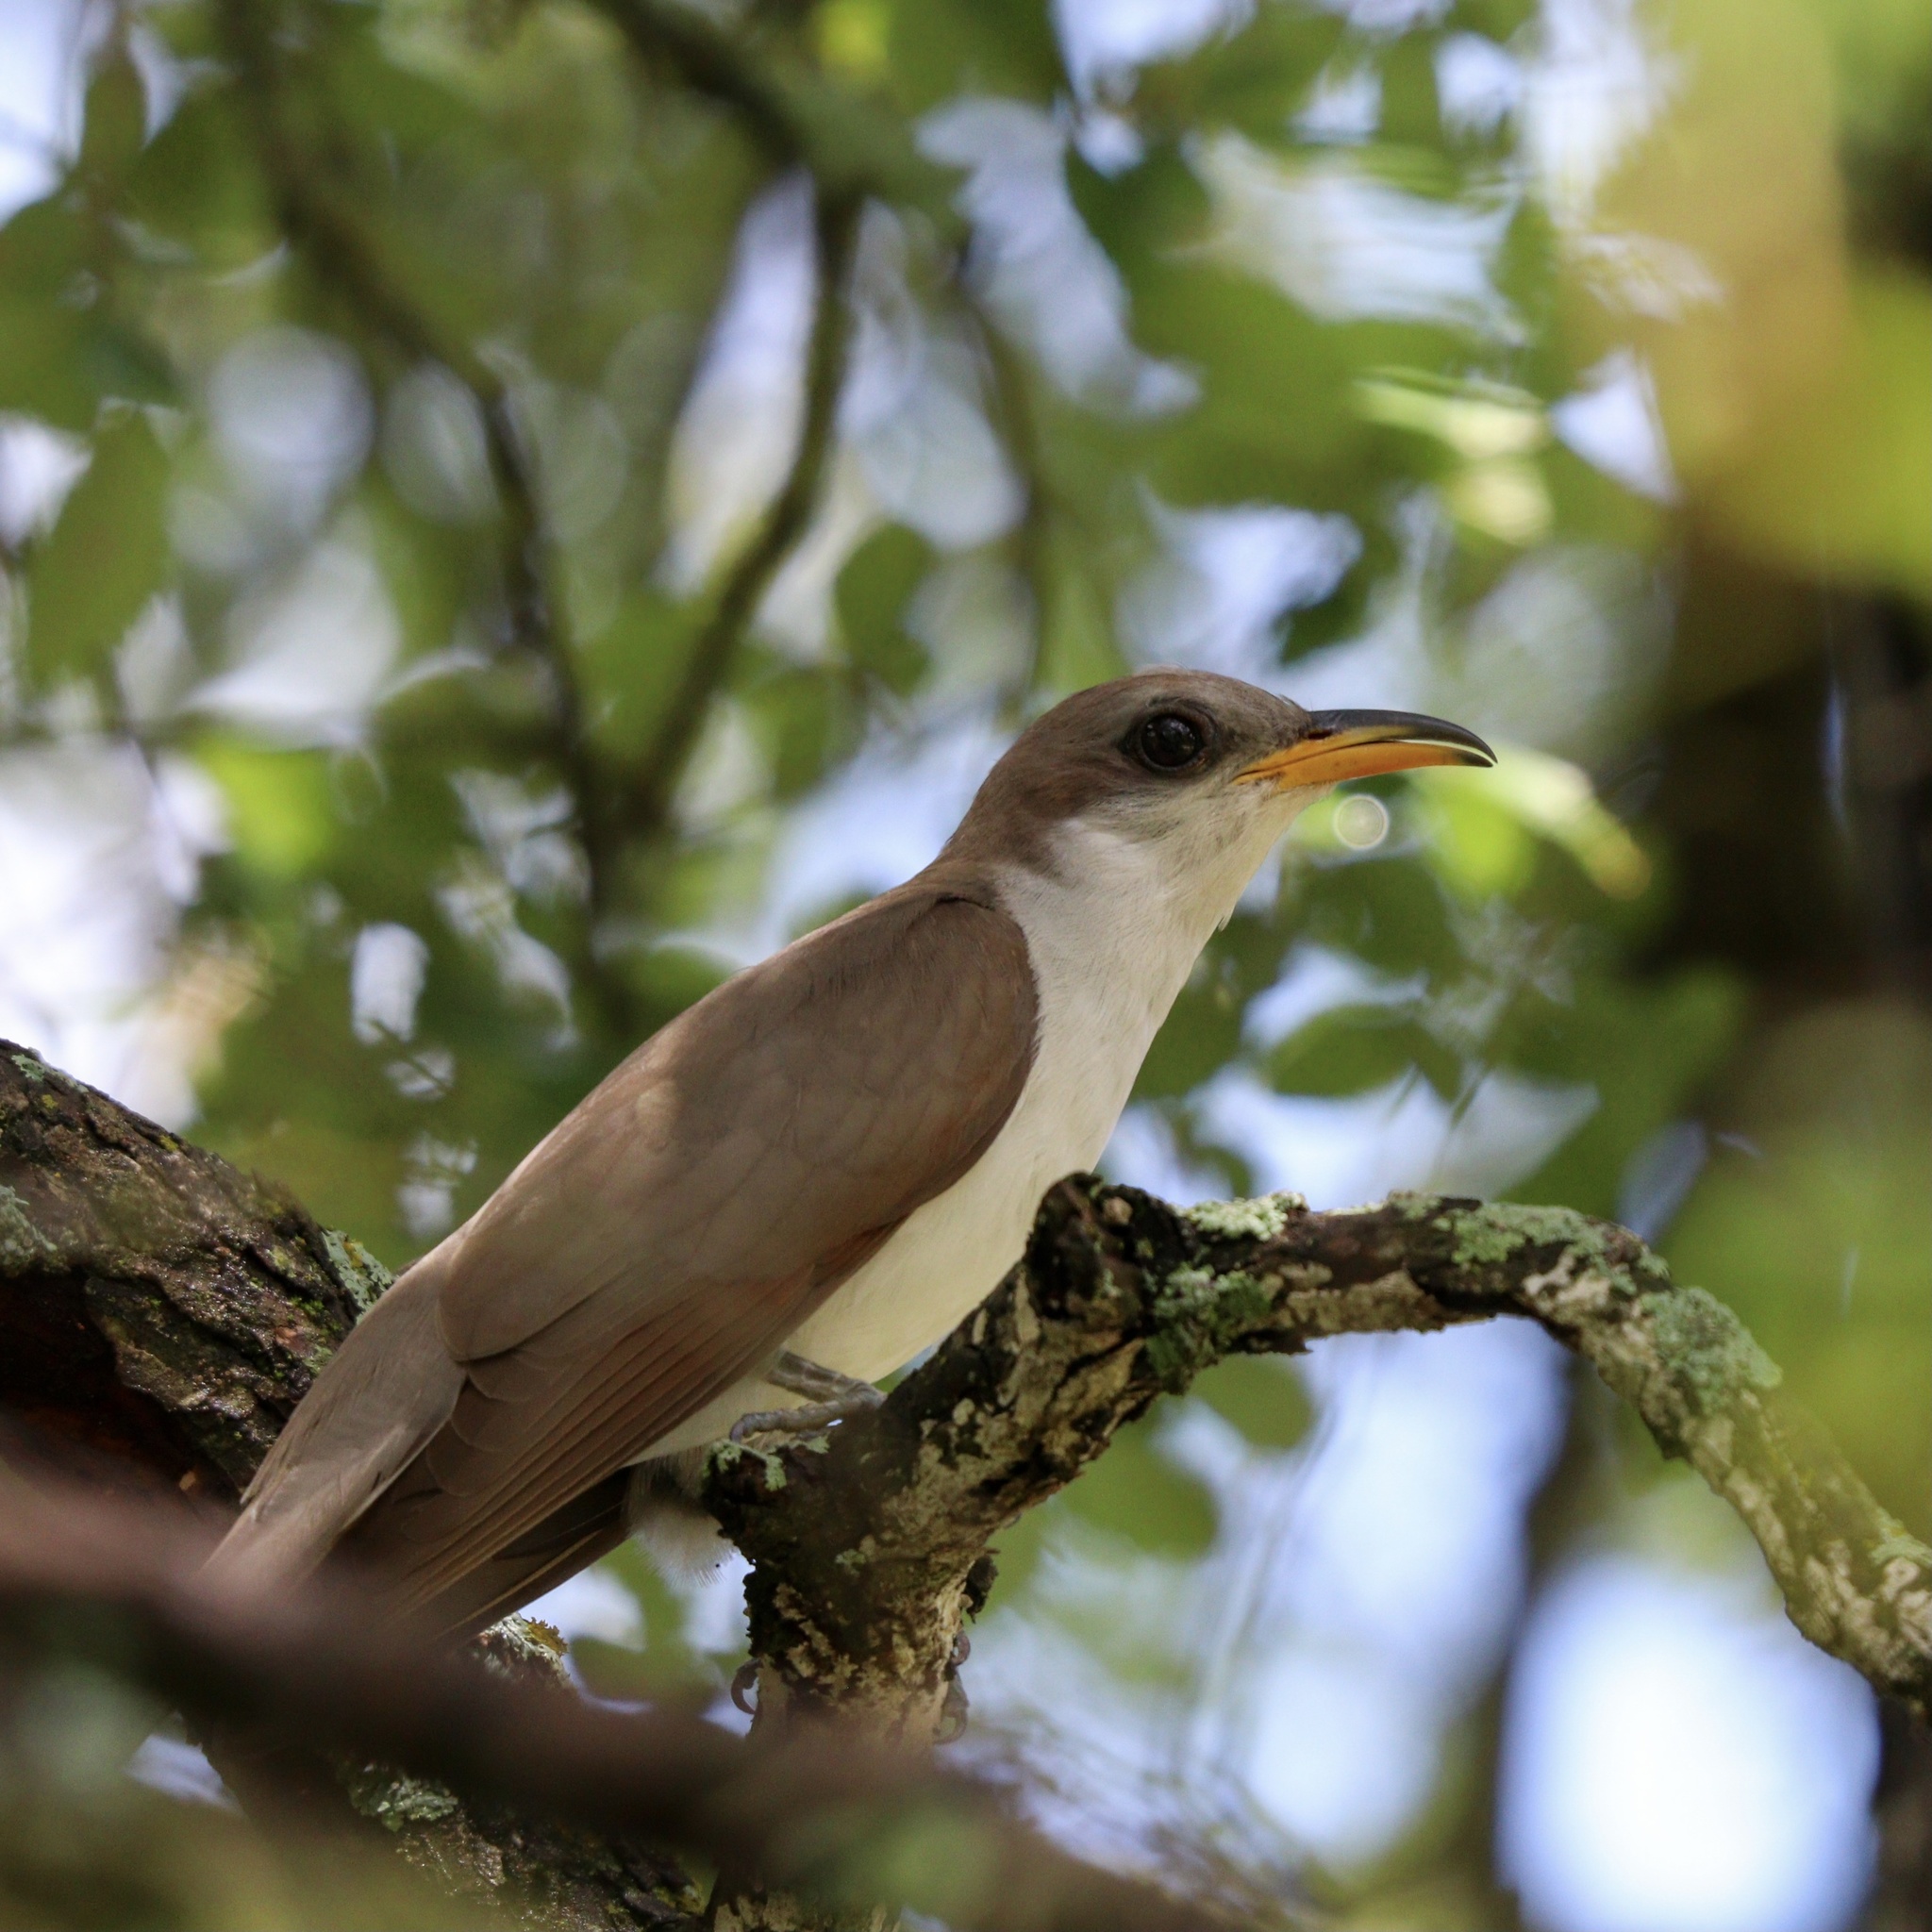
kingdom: Animalia
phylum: Chordata
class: Aves
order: Cuculiformes
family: Cuculidae
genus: Coccyzus
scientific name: Coccyzus americanus
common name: Yellow-billed cuckoo
